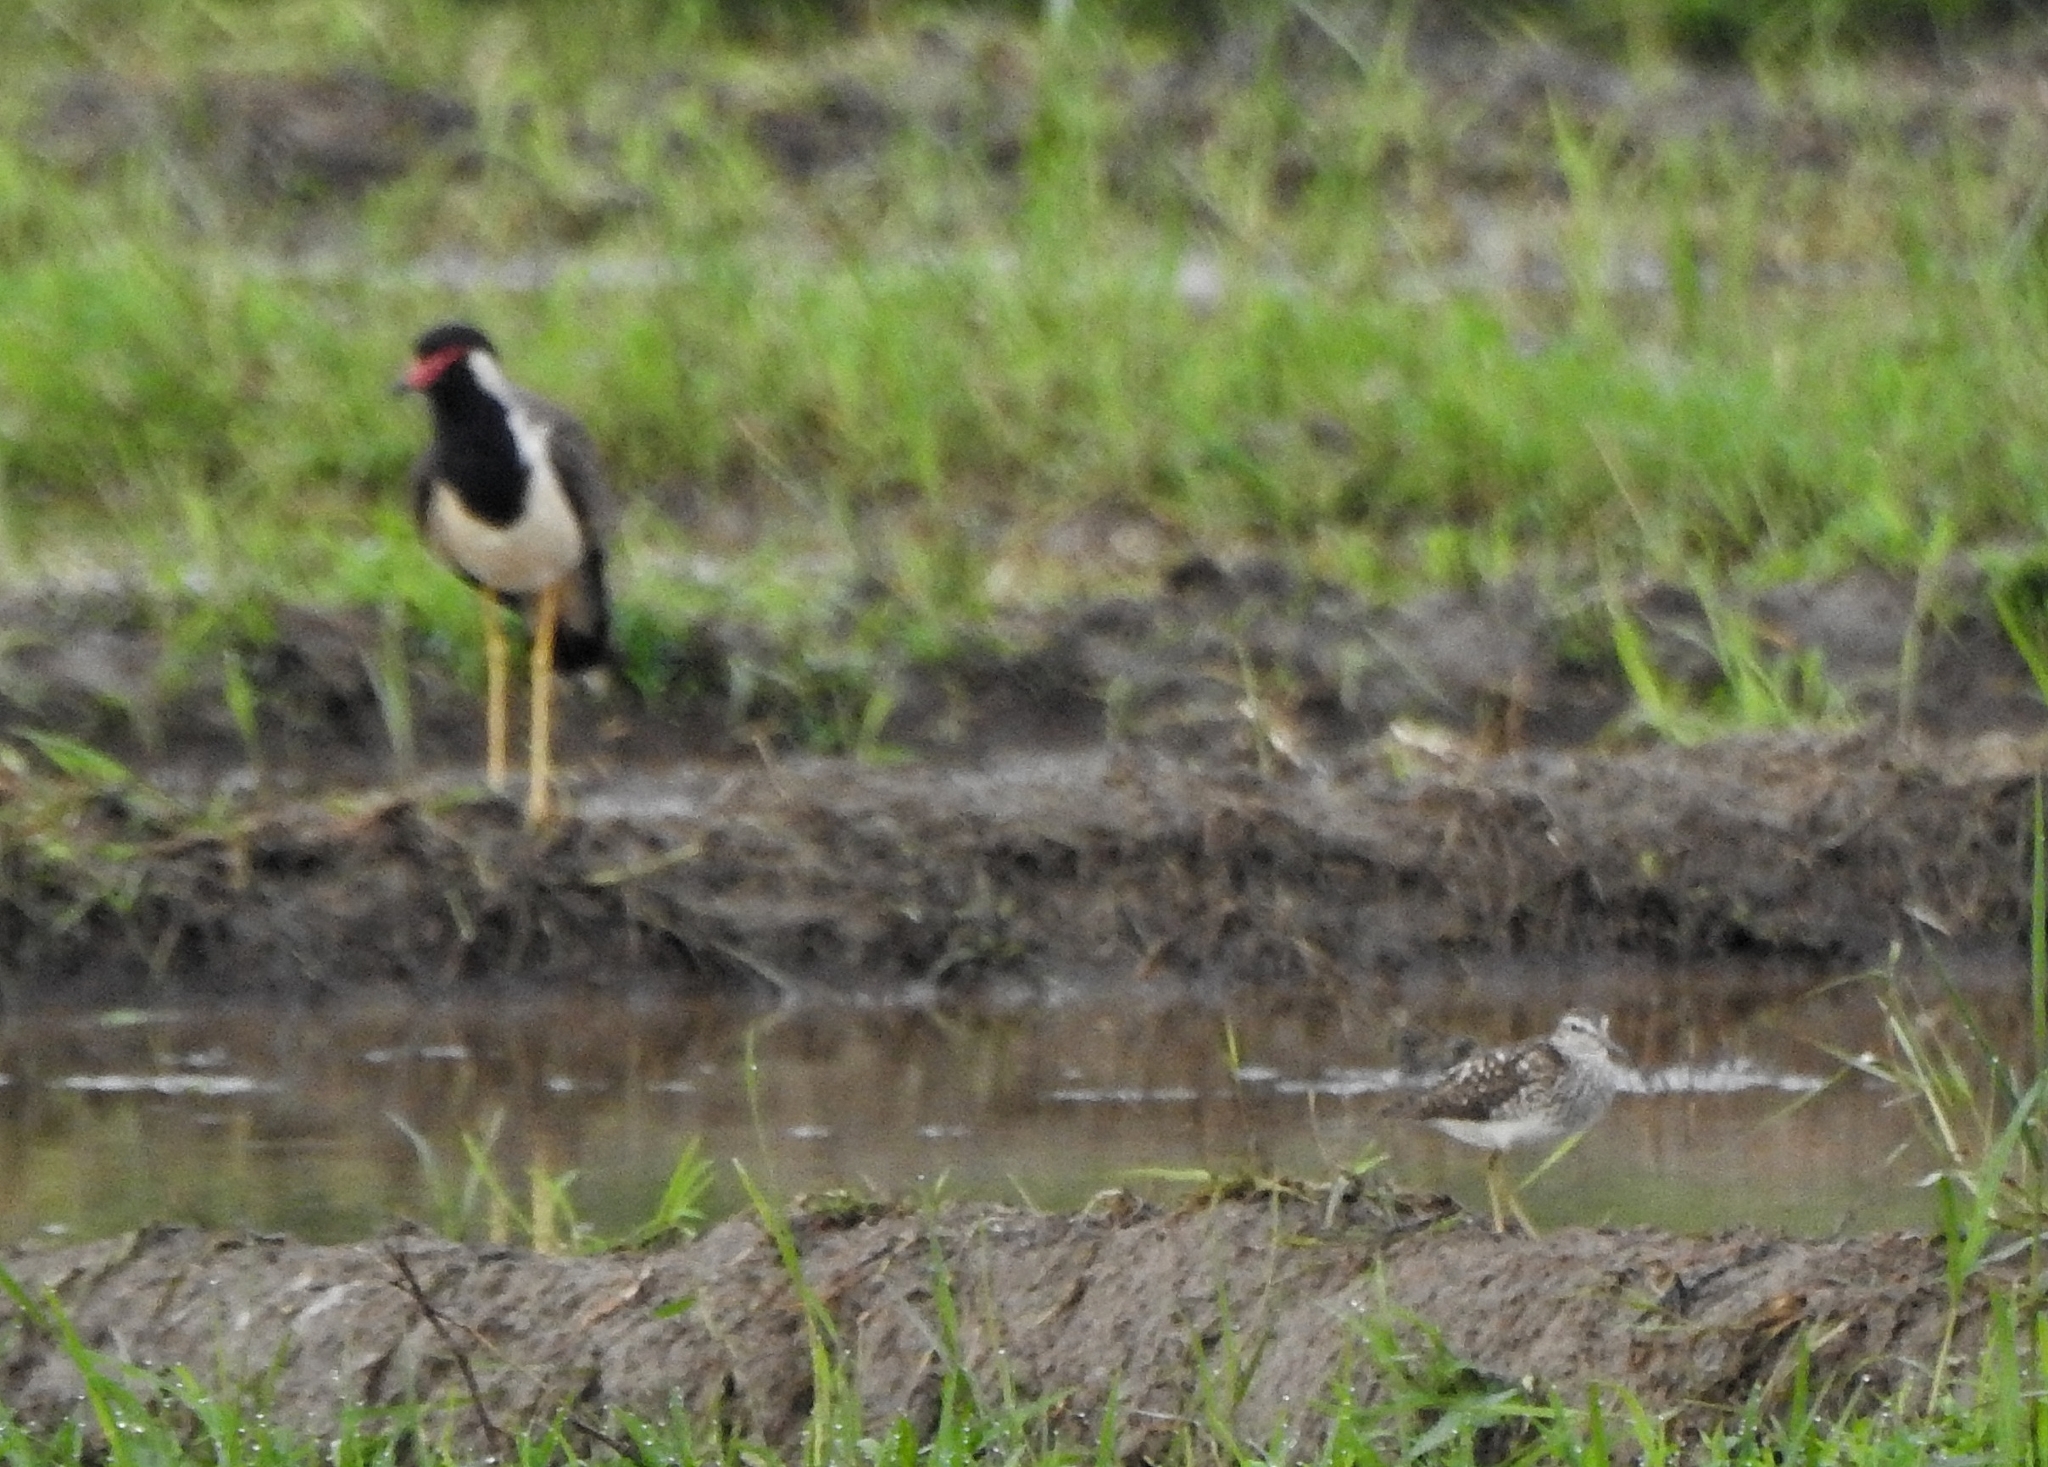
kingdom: Animalia
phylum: Chordata
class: Aves
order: Charadriiformes
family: Charadriidae
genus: Vanellus
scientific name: Vanellus indicus
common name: Red-wattled lapwing
